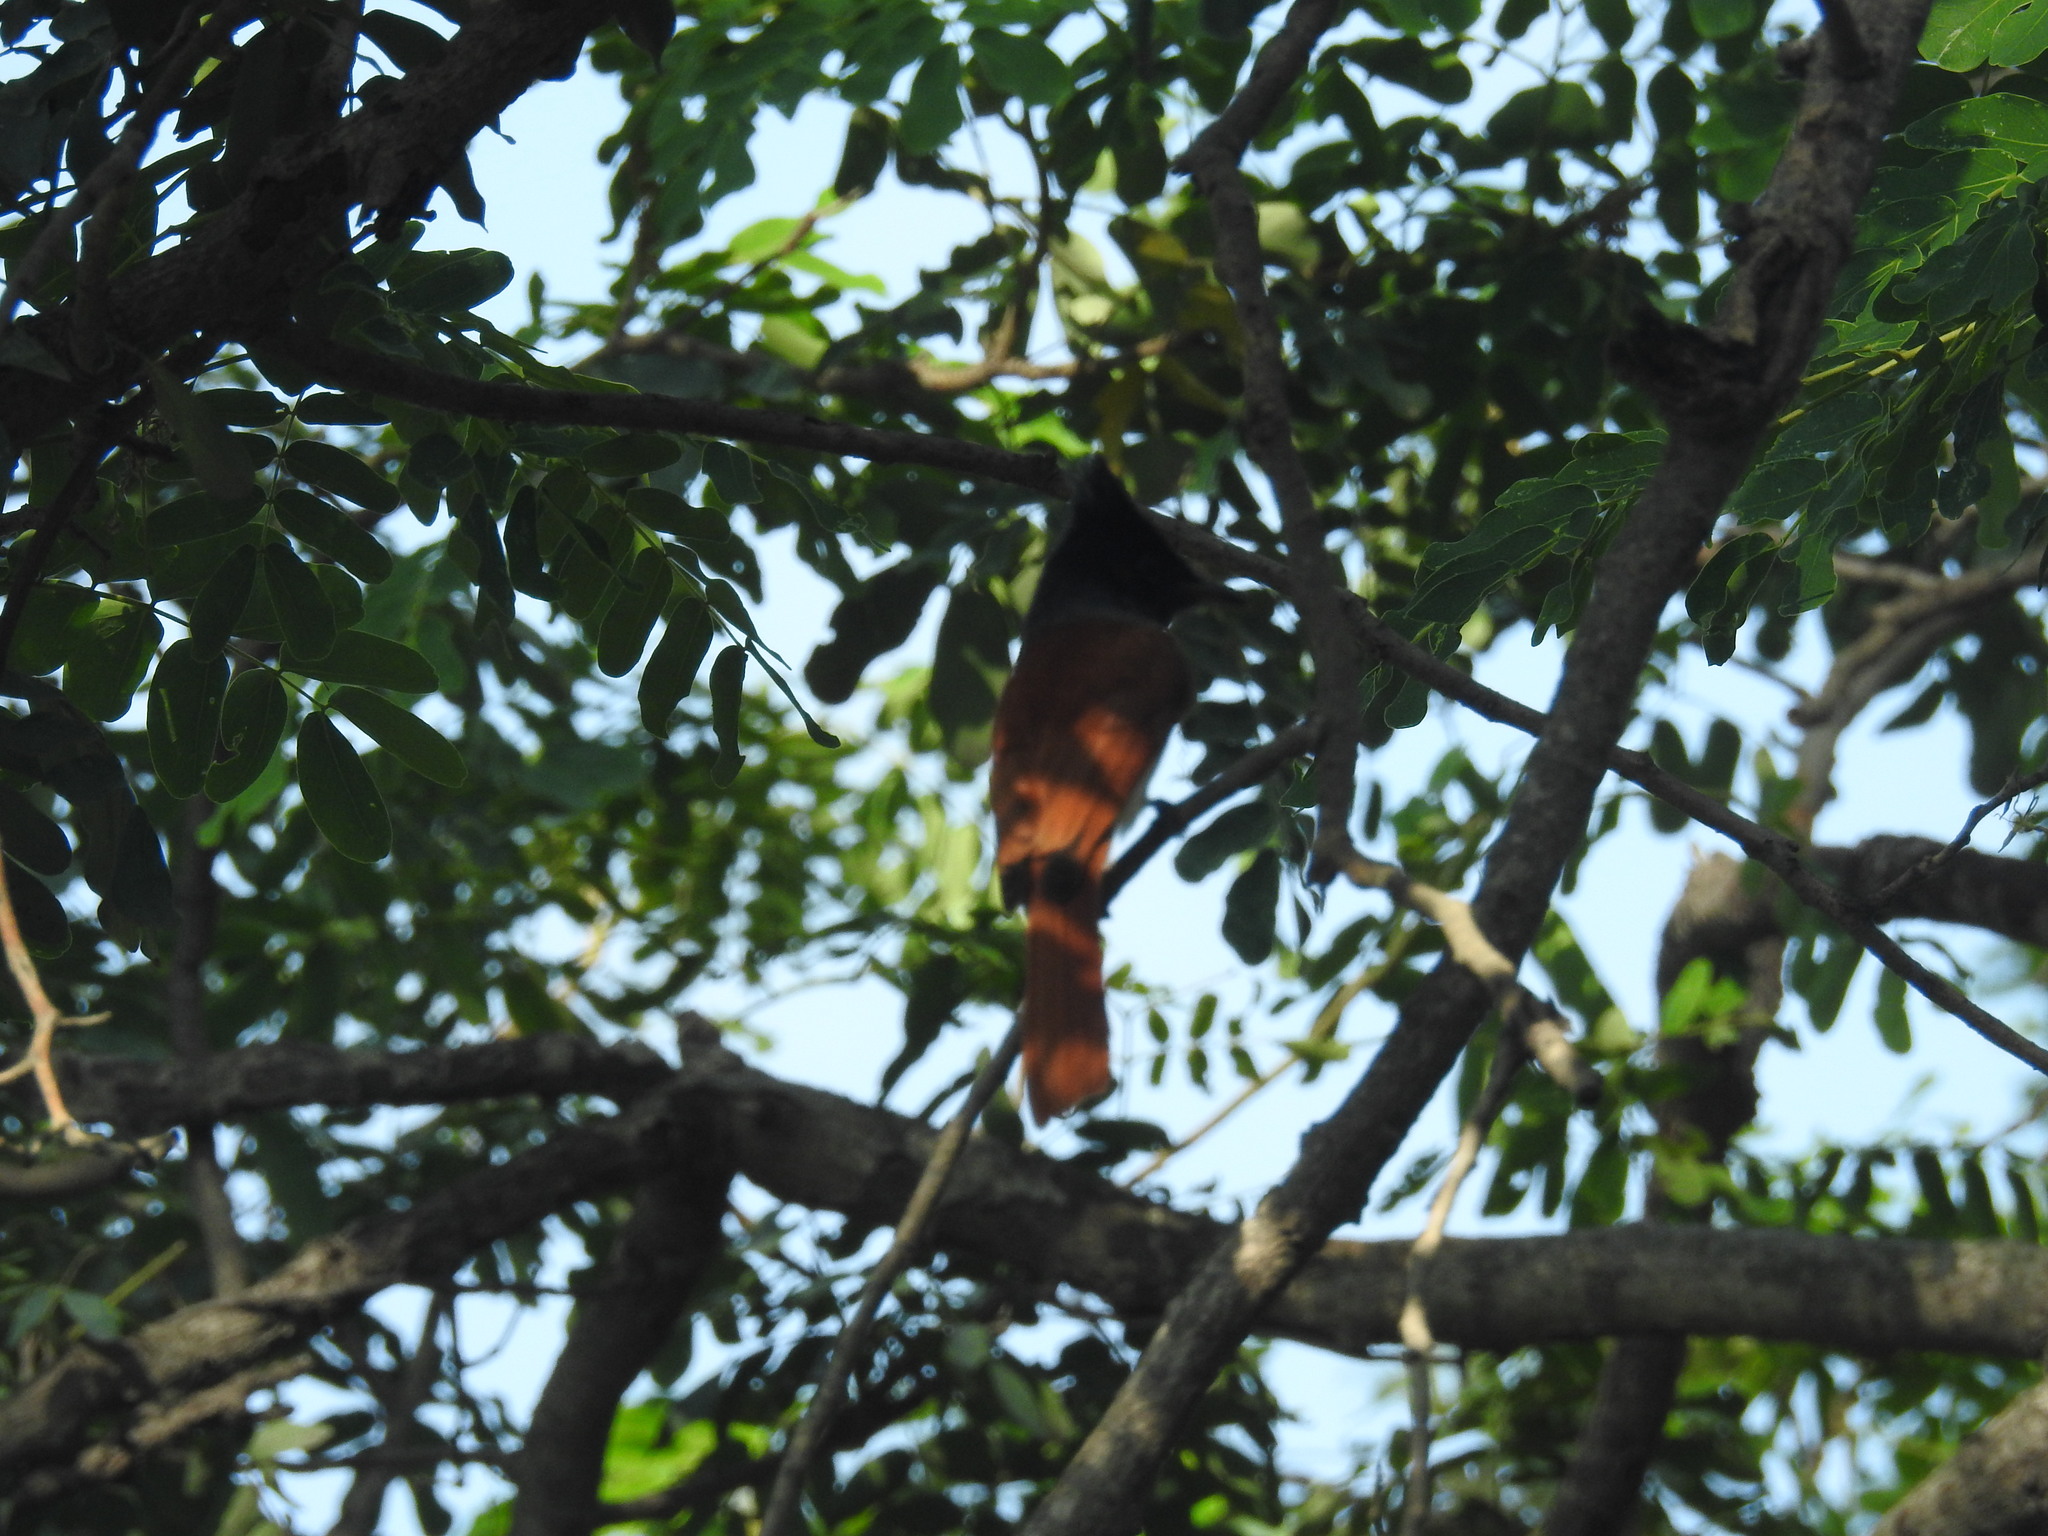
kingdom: Animalia
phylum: Chordata
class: Aves
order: Passeriformes
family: Monarchidae
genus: Terpsiphone
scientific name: Terpsiphone paradisi
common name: Indian paradise flycatcher
